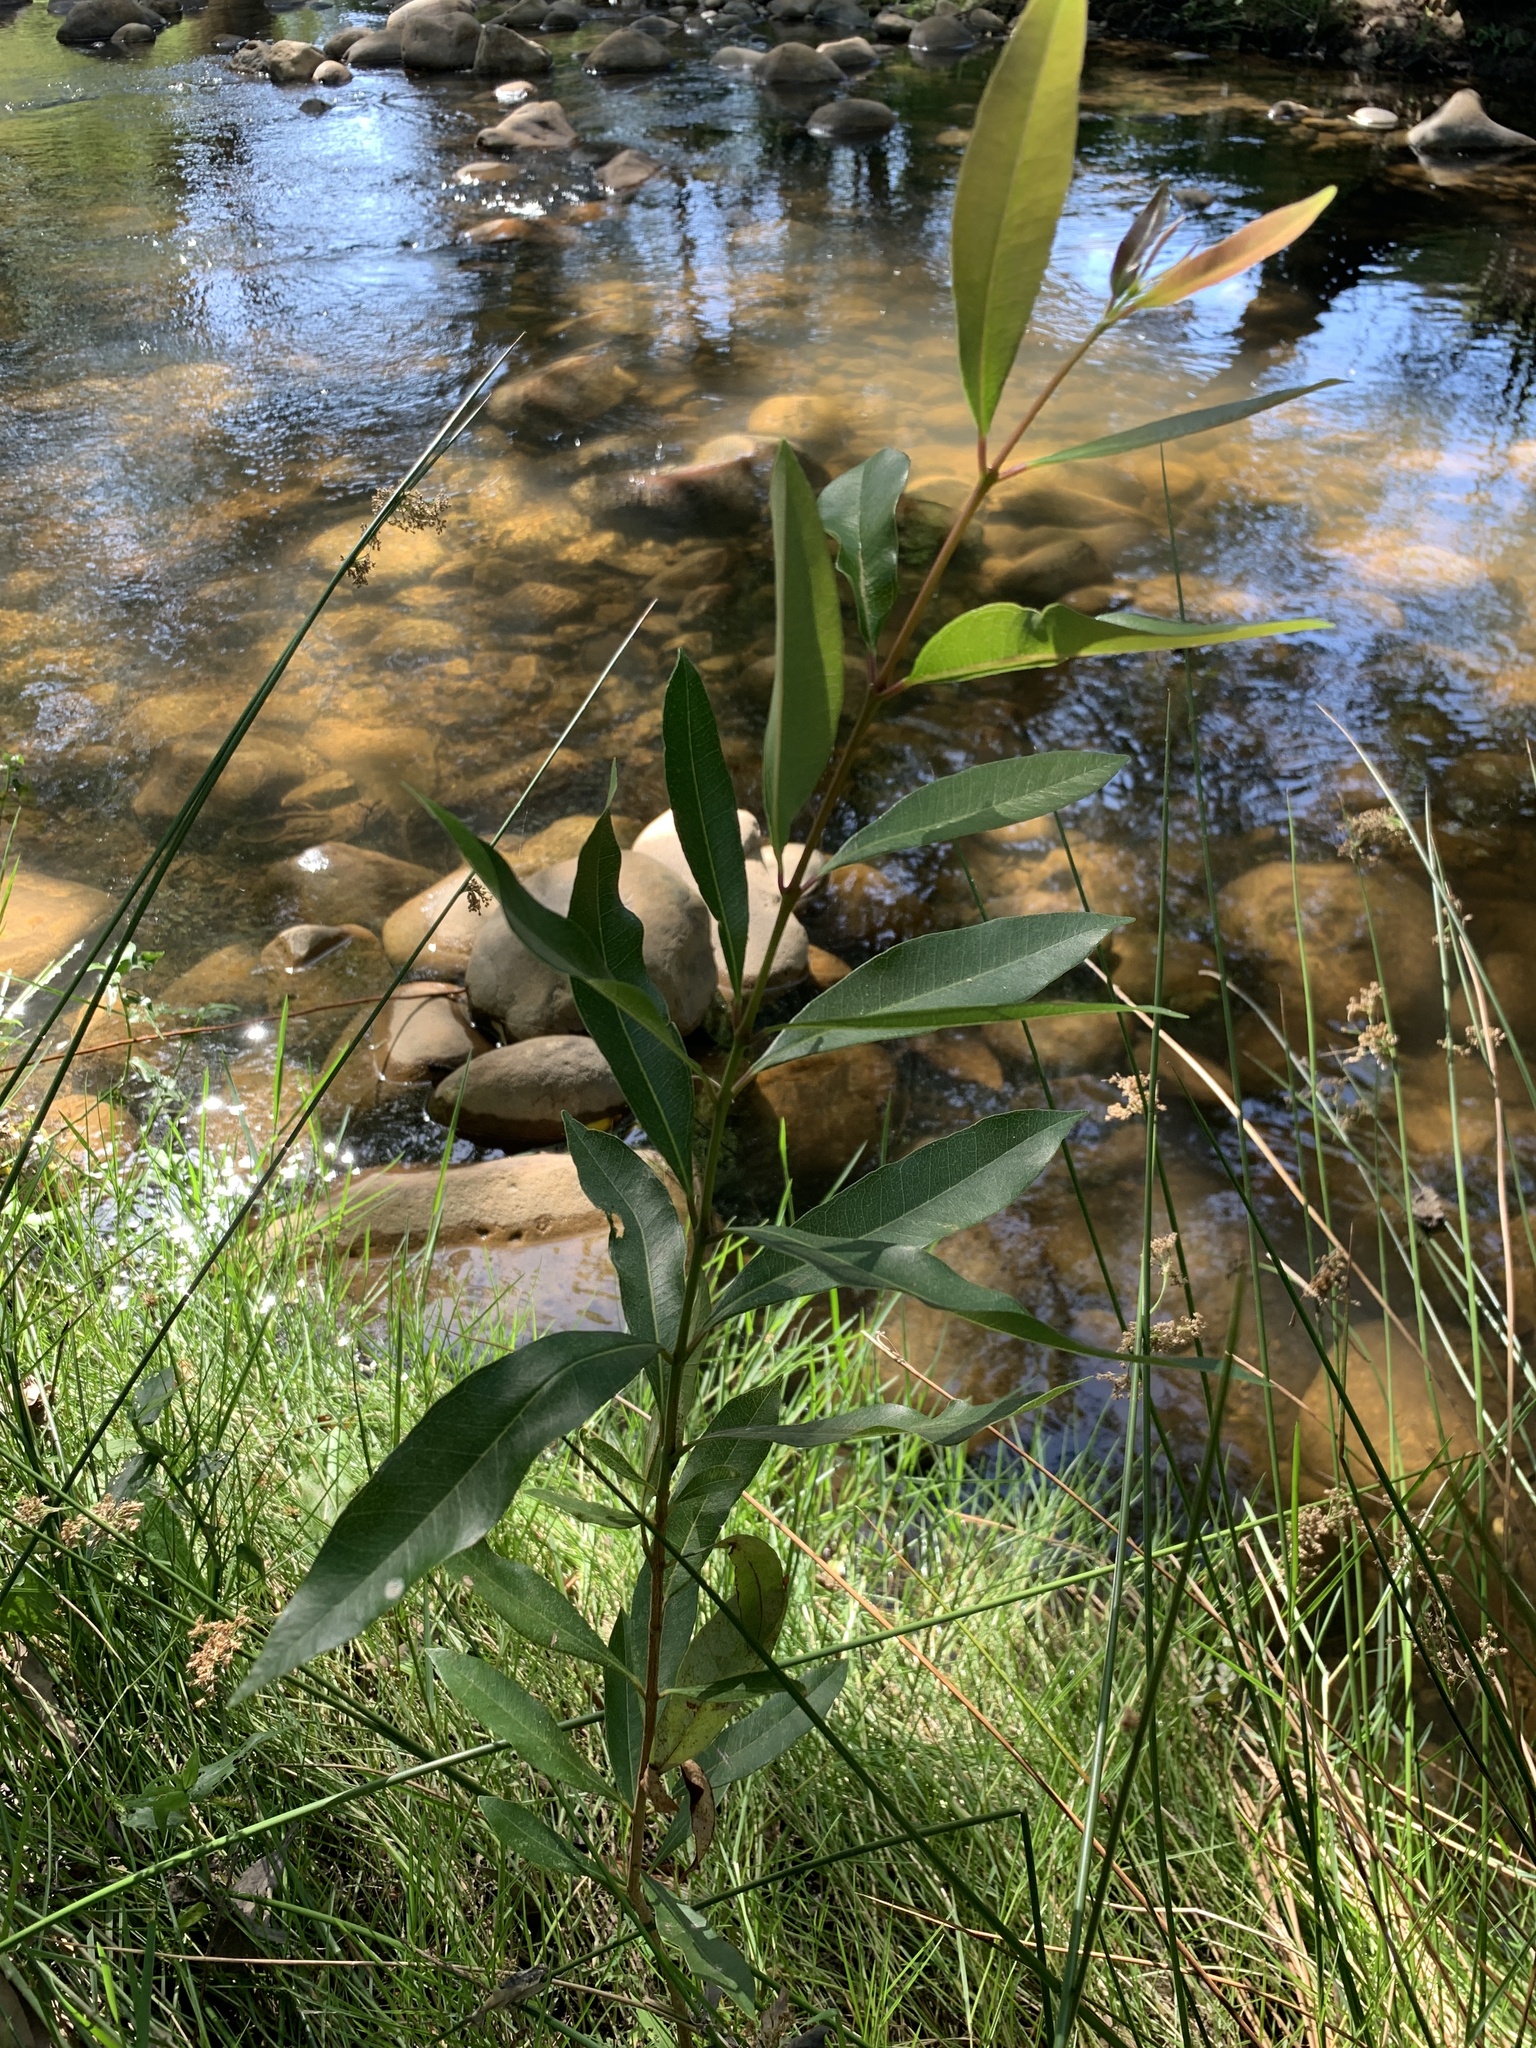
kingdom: Plantae
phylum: Tracheophyta
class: Magnoliopsida
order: Myrtales
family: Myrtaceae
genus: Syzygium
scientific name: Syzygium guineense
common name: Water-pear
